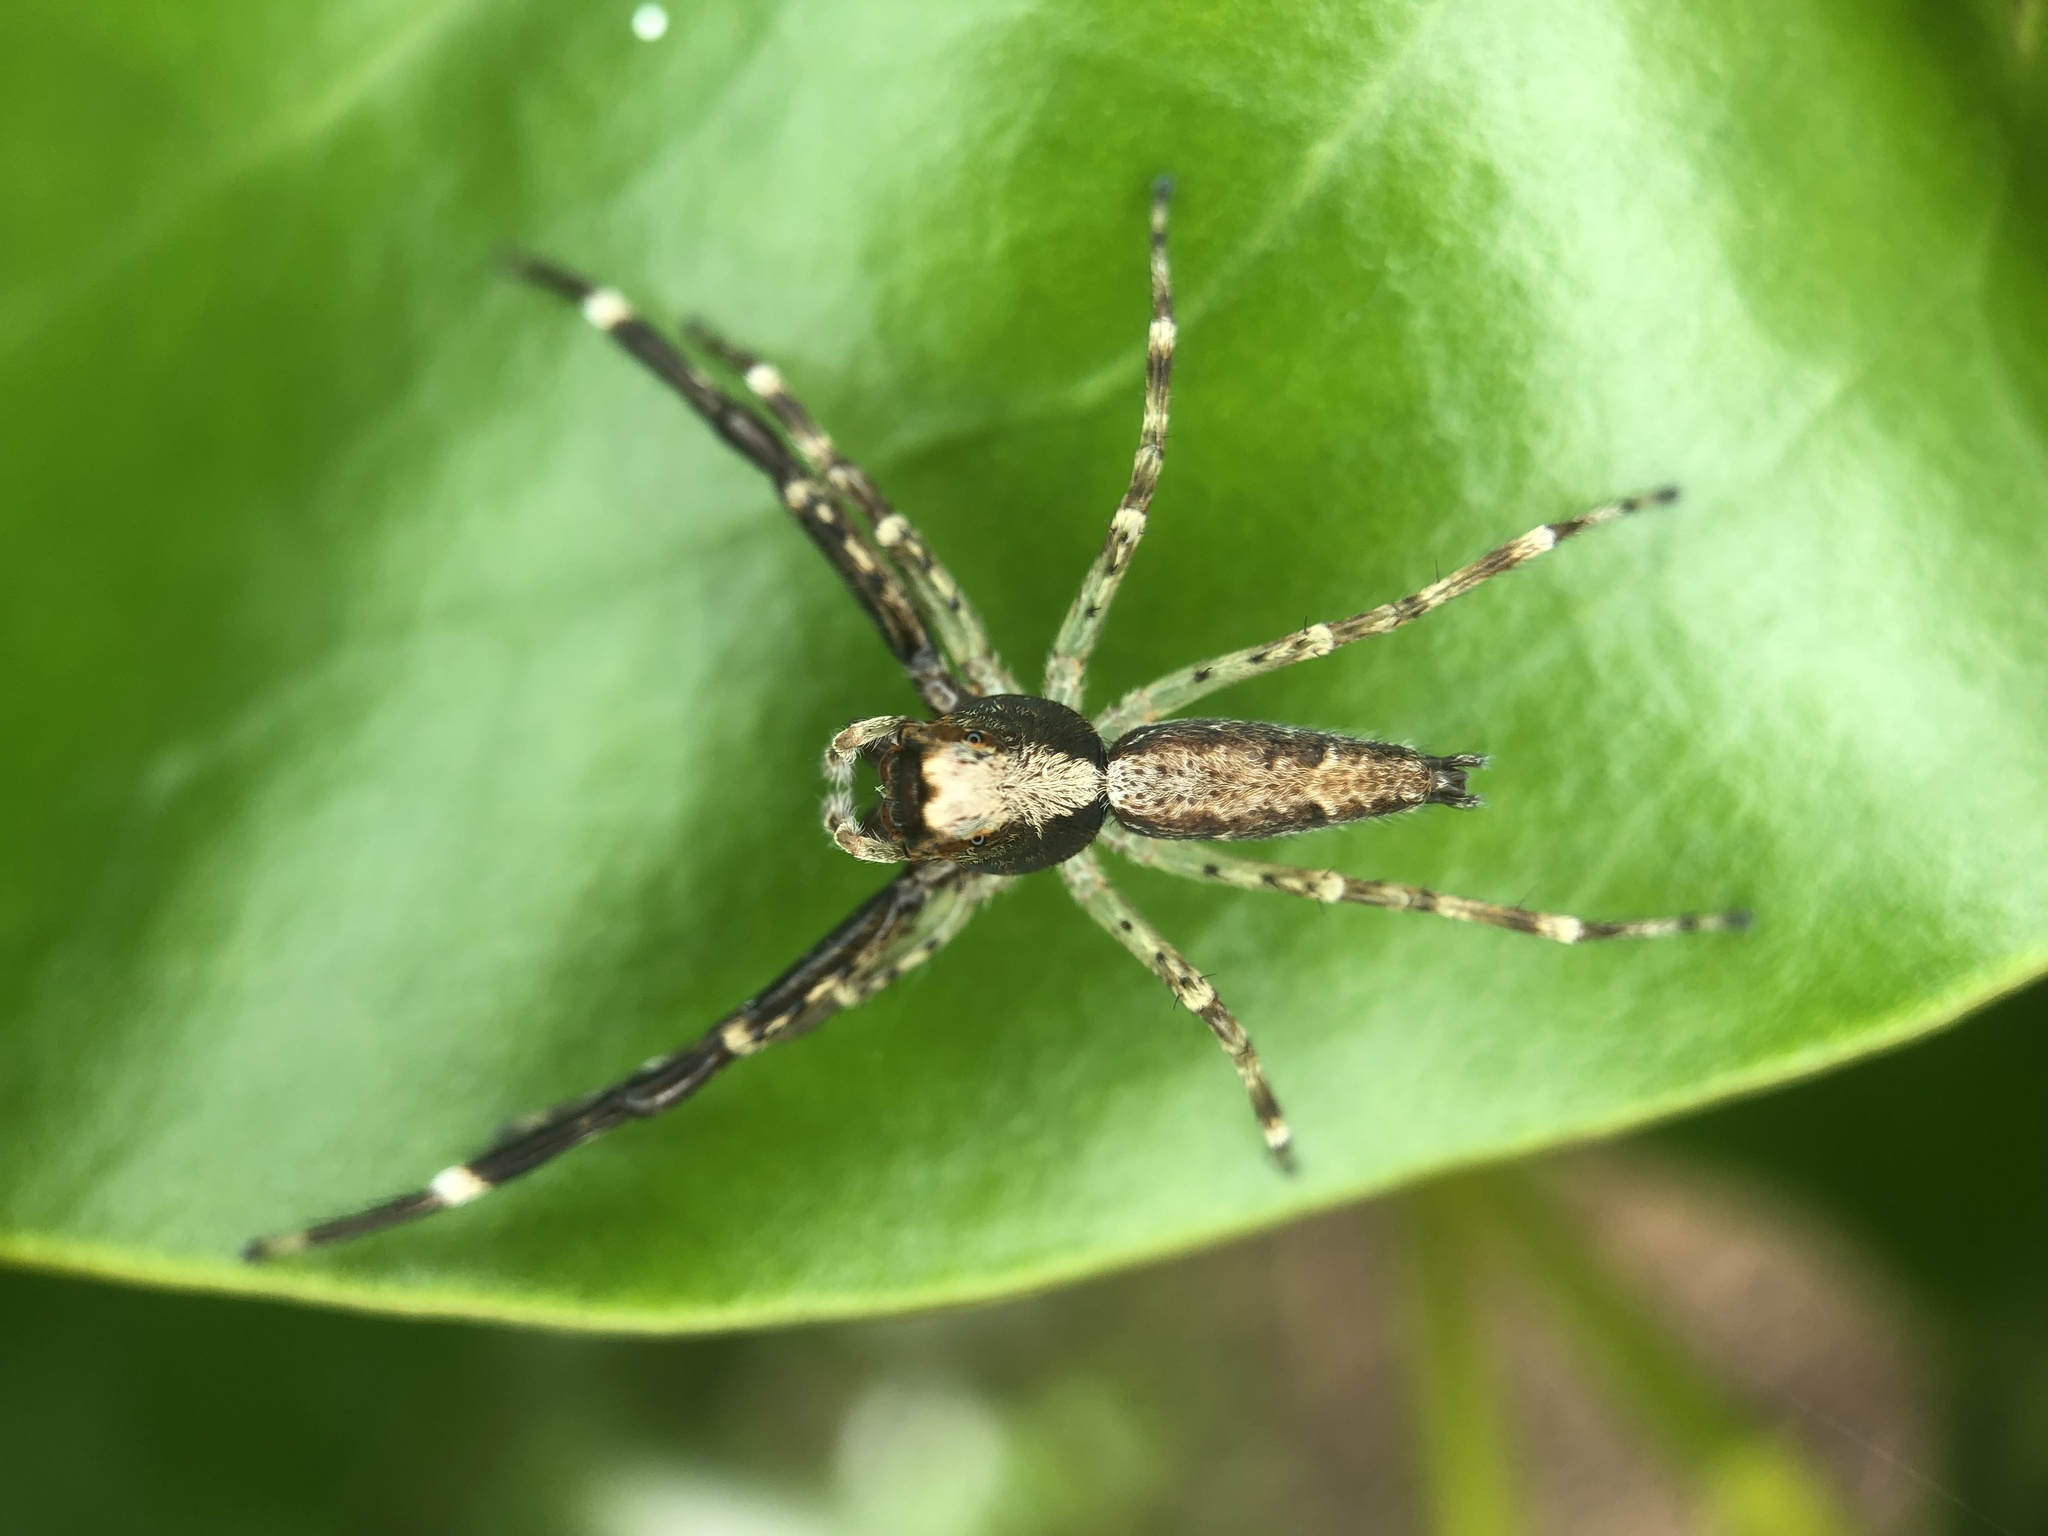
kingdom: Animalia
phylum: Arthropoda
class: Arachnida
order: Araneae
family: Salticidae
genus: Helpis
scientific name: Helpis minitabunda
